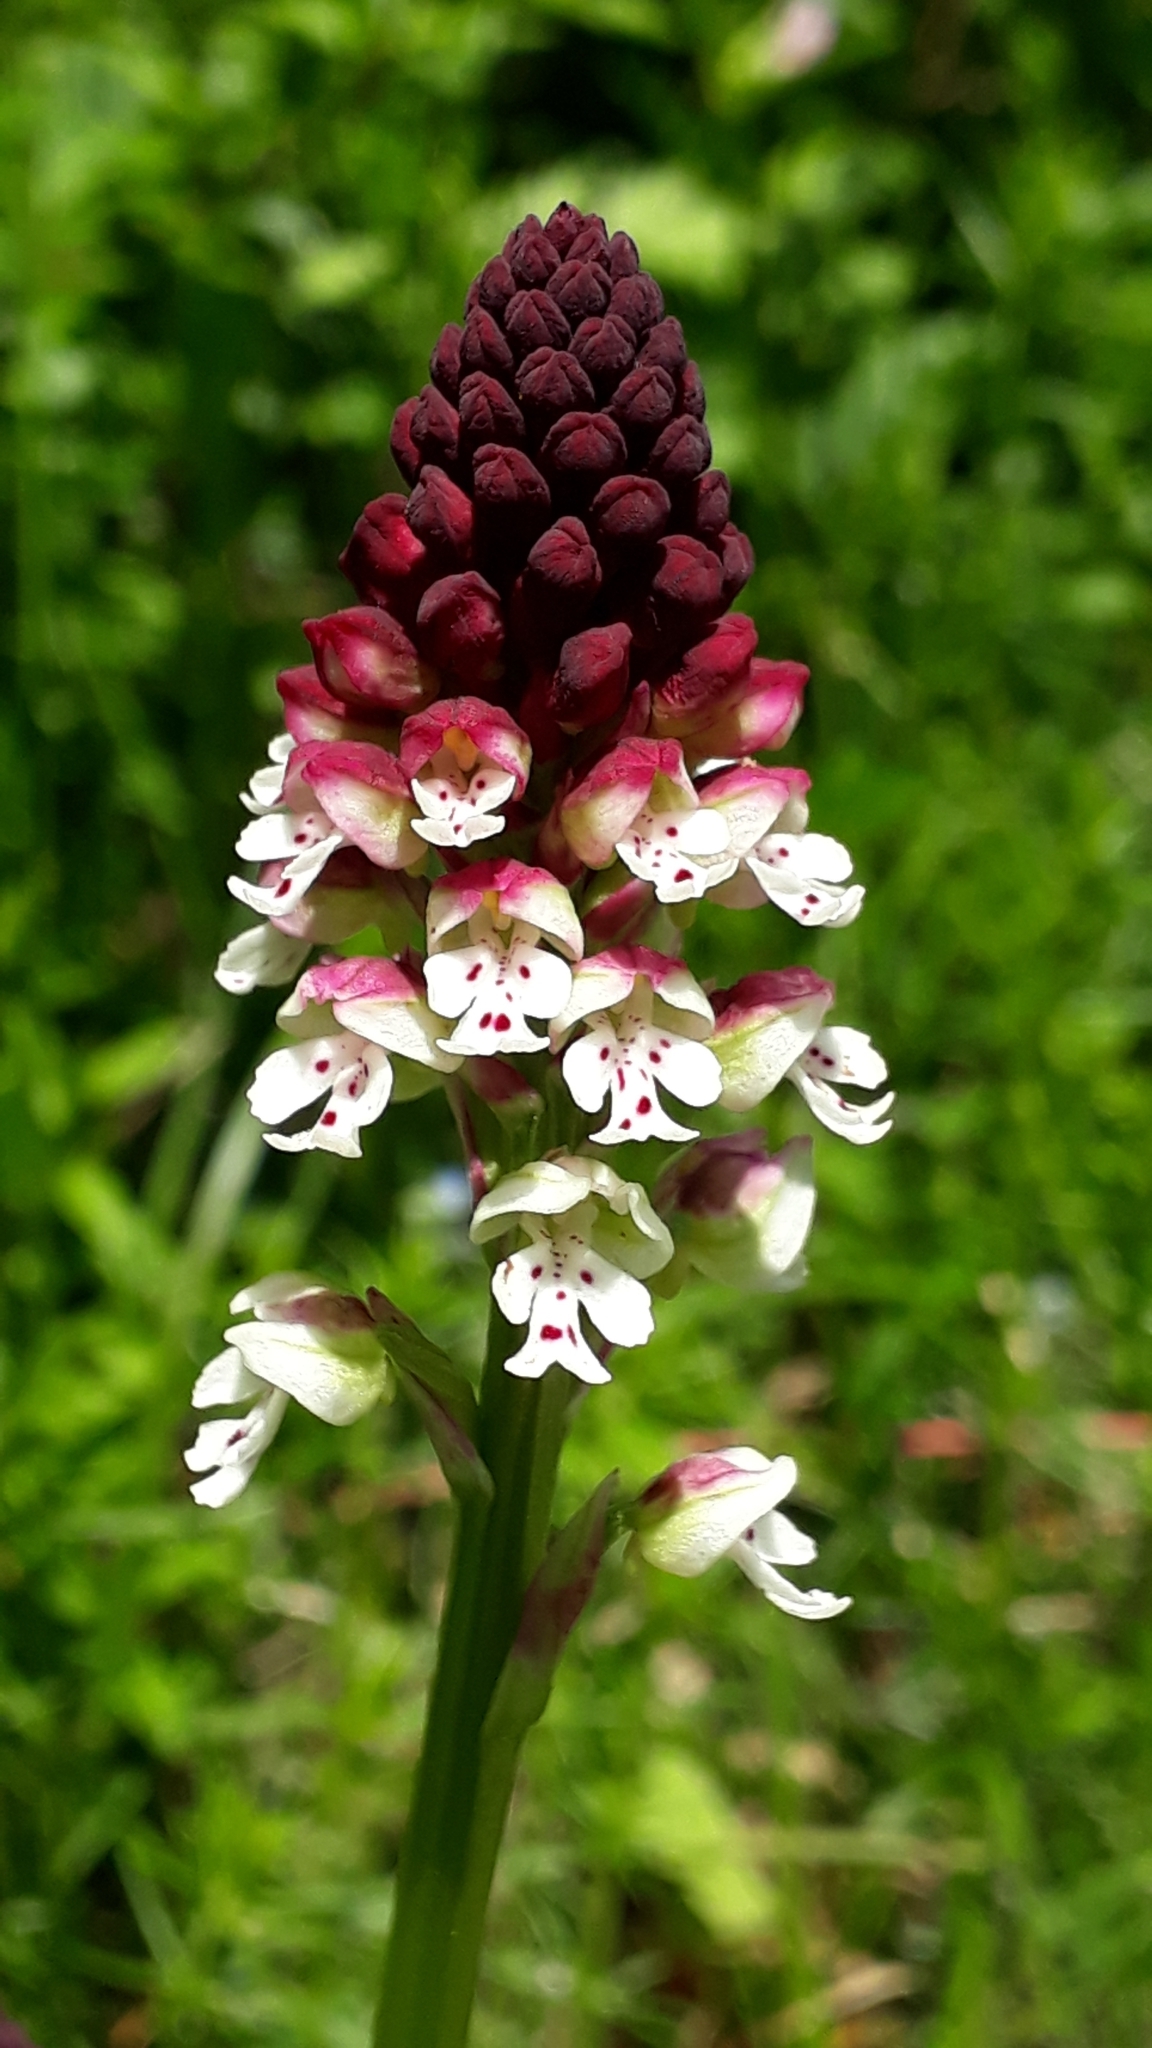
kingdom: Plantae
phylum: Tracheophyta
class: Liliopsida
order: Asparagales
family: Orchidaceae
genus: Neotinea
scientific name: Neotinea ustulata
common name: Burnt orchid
